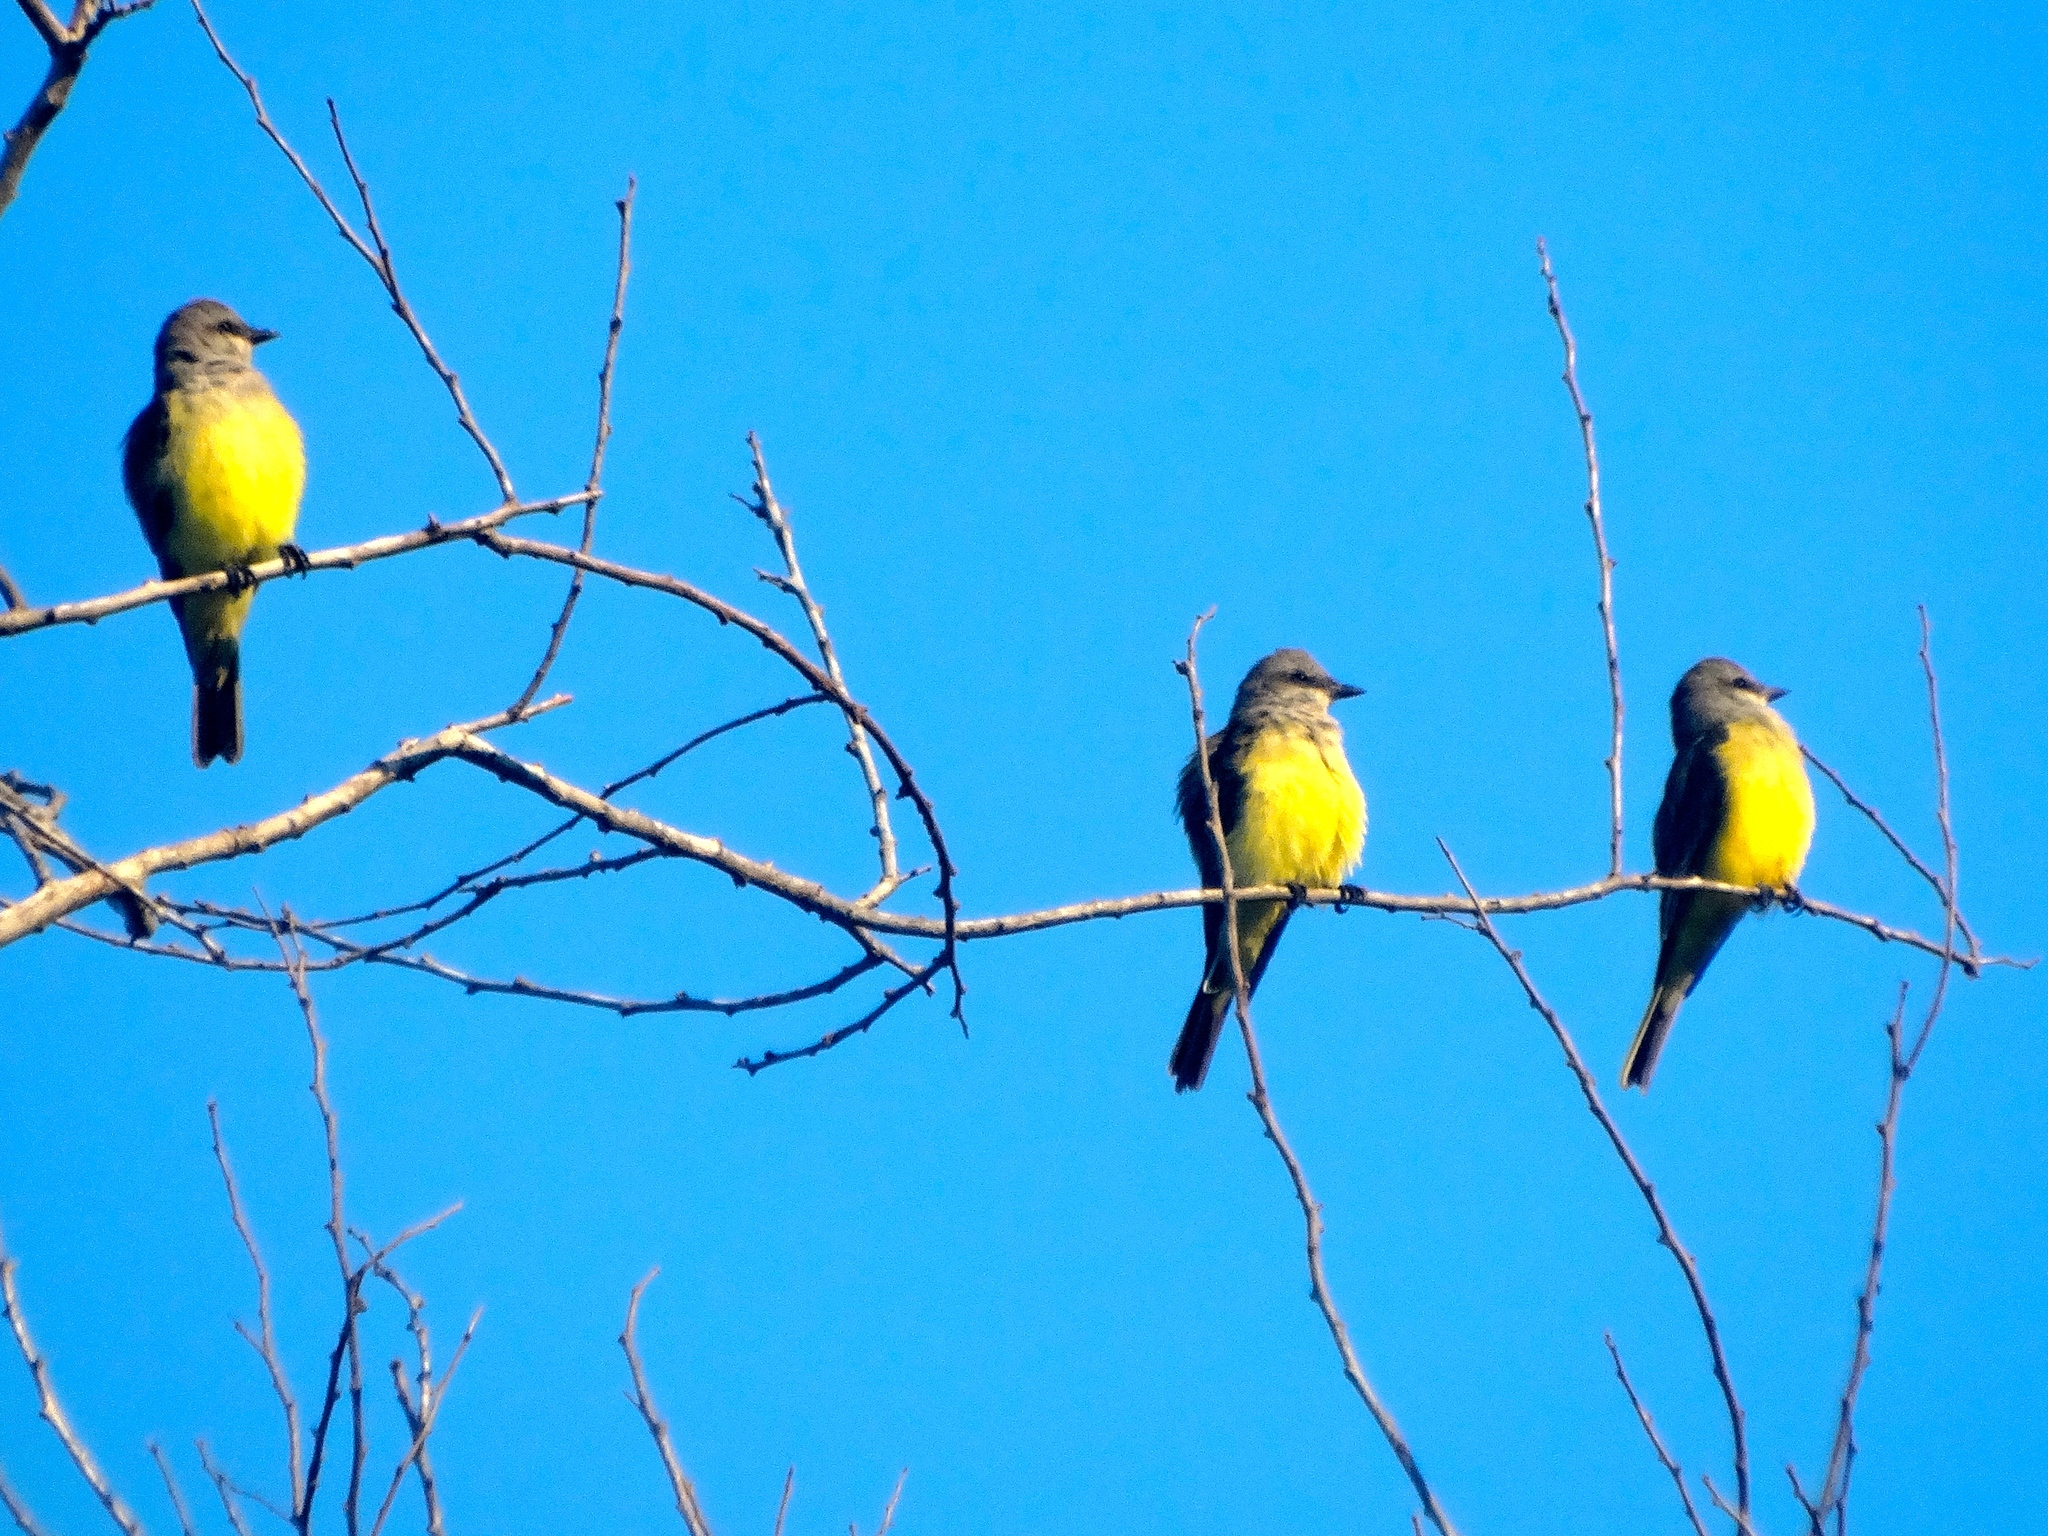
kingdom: Animalia
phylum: Chordata
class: Aves
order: Passeriformes
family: Tyrannidae
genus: Tyrannus
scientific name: Tyrannus melancholicus
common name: Tropical kingbird
